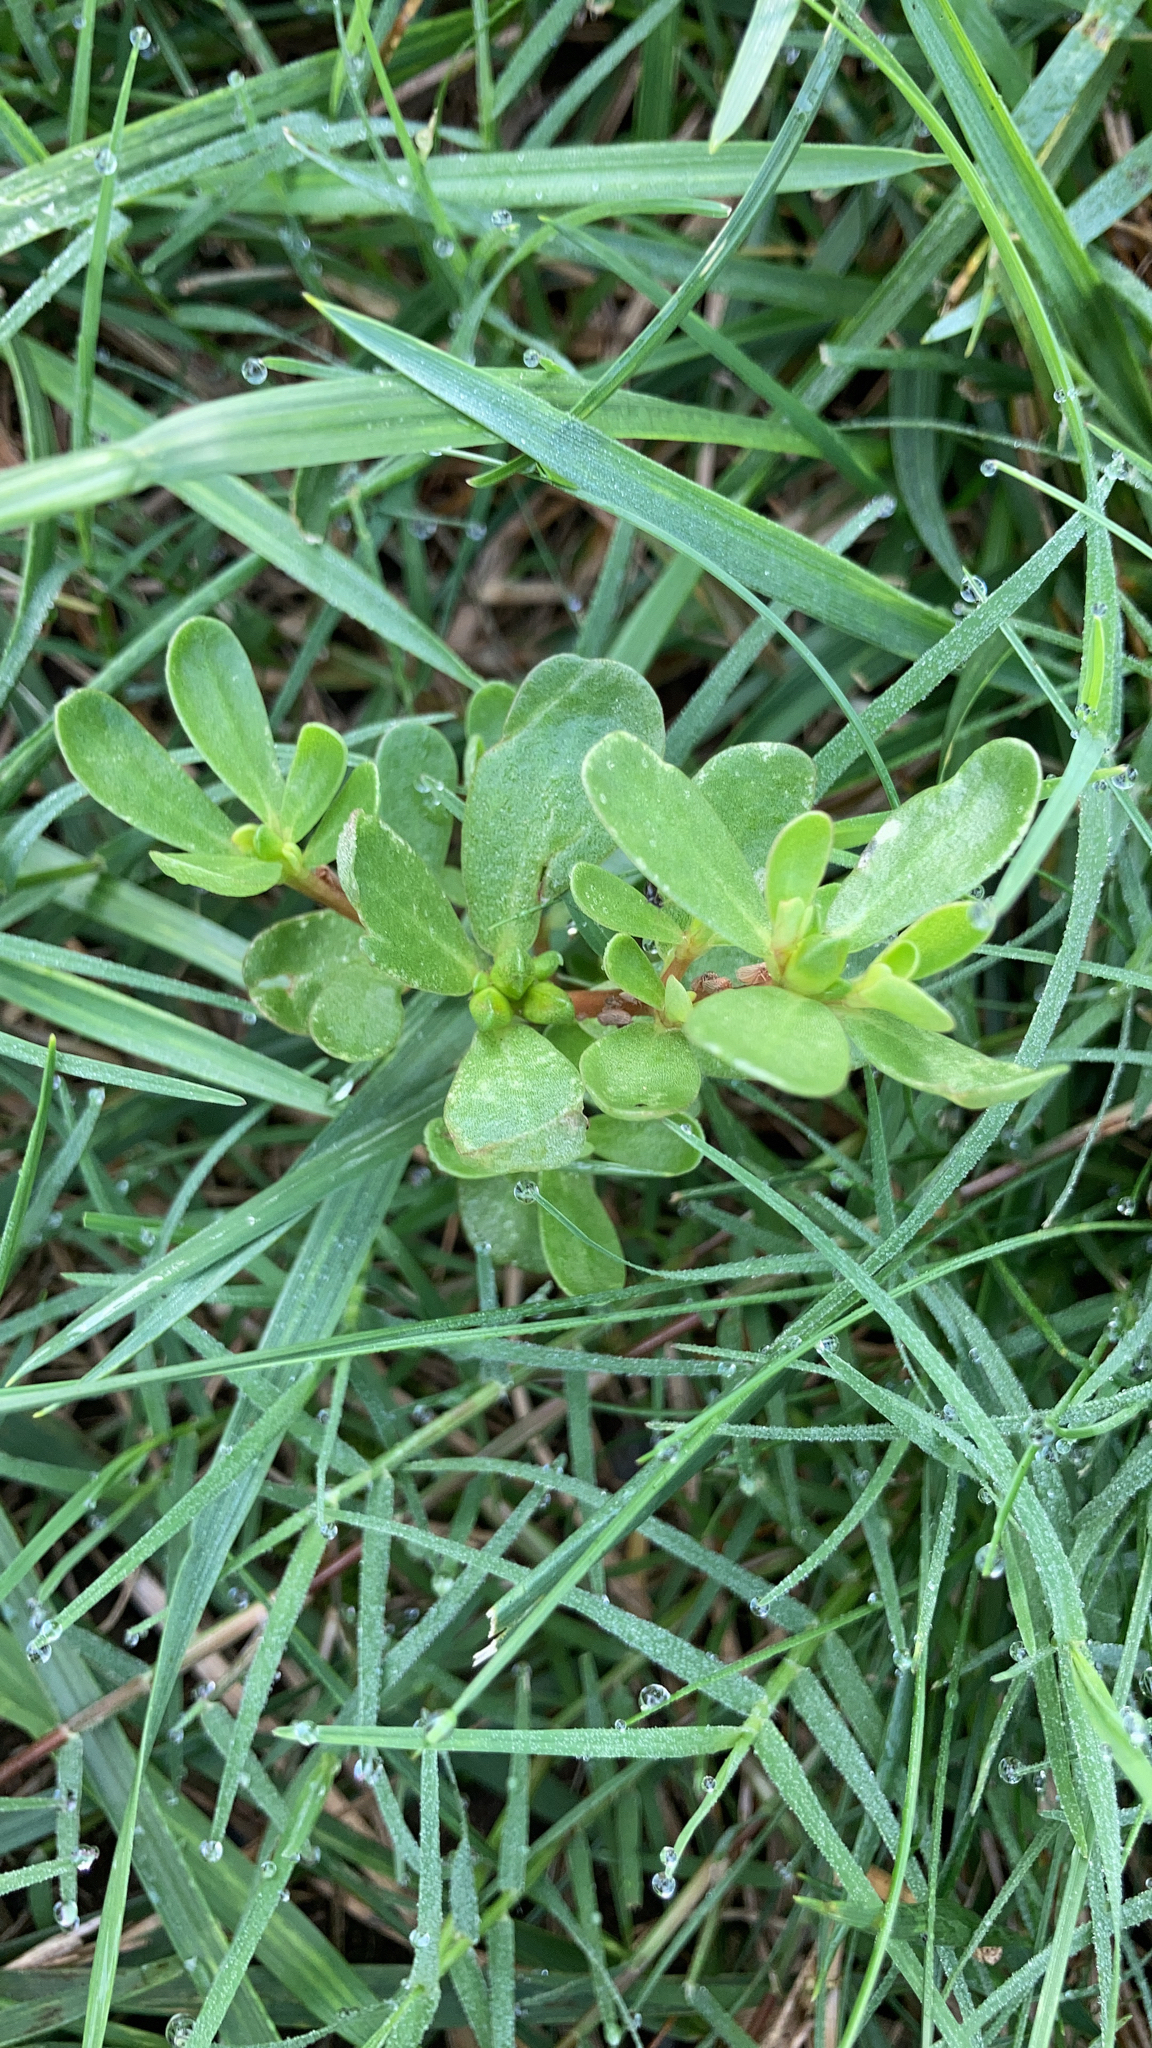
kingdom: Plantae
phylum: Tracheophyta
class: Magnoliopsida
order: Caryophyllales
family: Portulacaceae
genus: Portulaca
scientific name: Portulaca oleracea
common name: Common purslane
